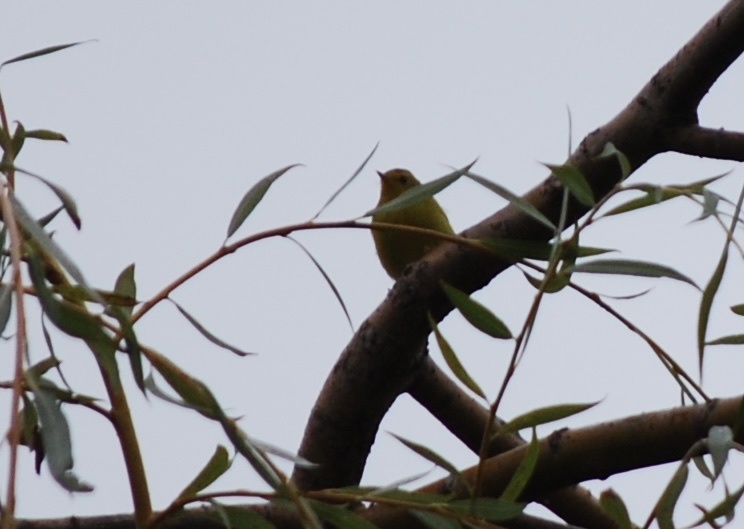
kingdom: Animalia
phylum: Chordata
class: Aves
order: Passeriformes
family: Parulidae
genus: Cardellina
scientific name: Cardellina pusilla
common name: Wilson's warbler
